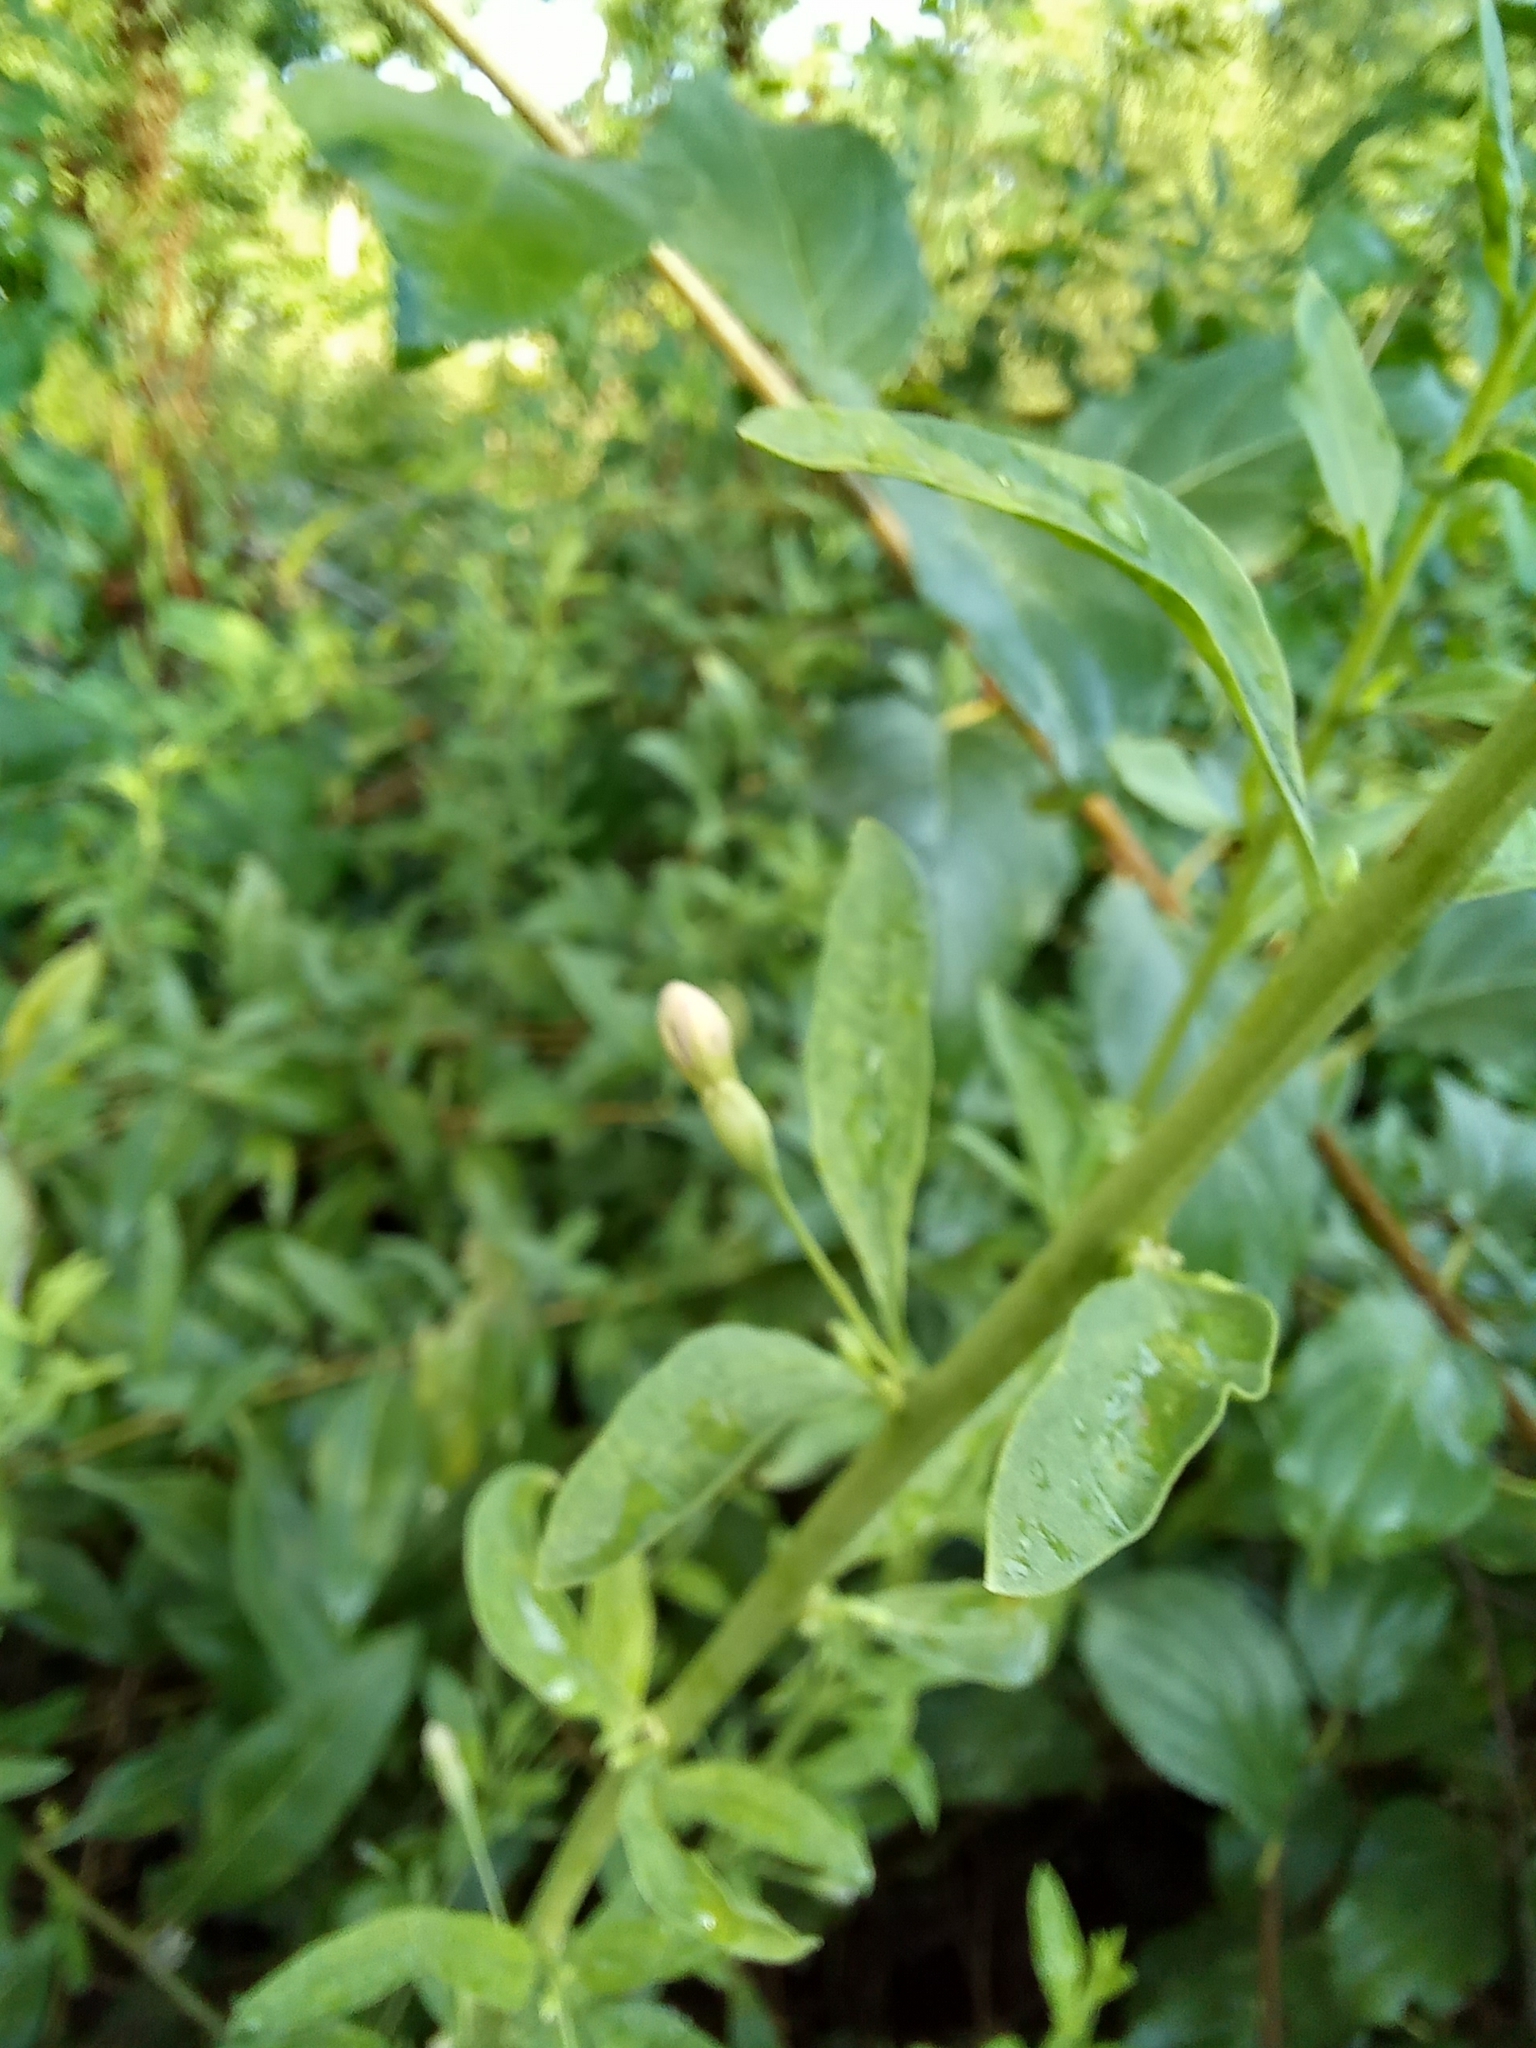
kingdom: Plantae
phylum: Tracheophyta
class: Magnoliopsida
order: Solanales
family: Solanaceae
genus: Lycium
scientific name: Lycium barbarum
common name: Duke of argyll's teaplant
